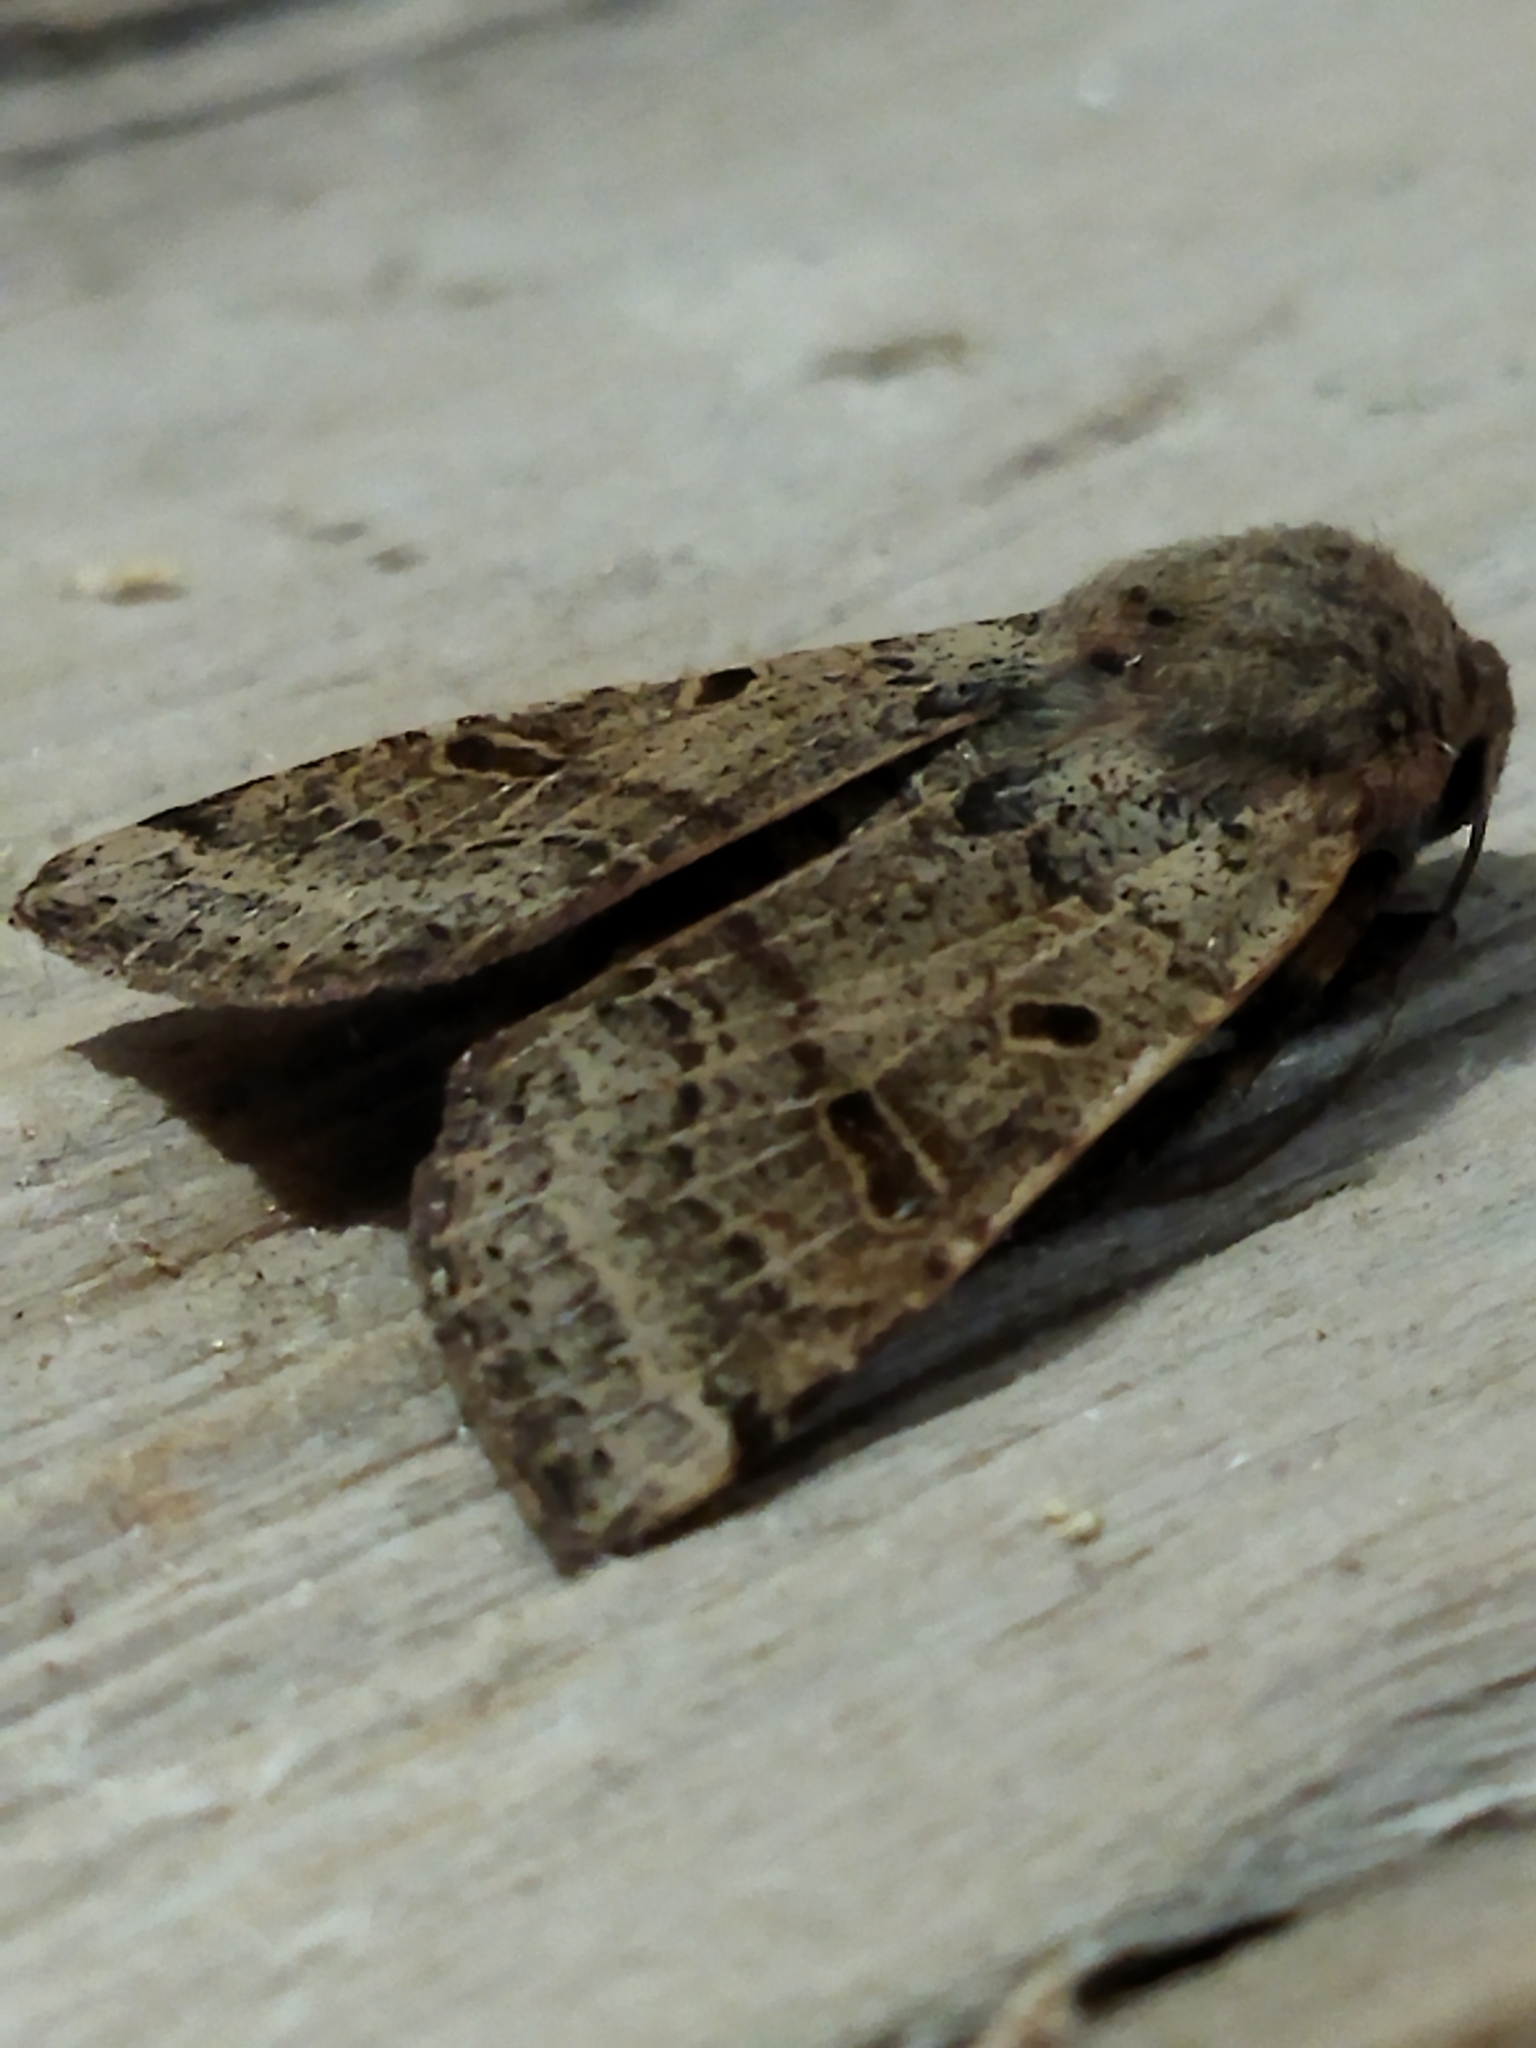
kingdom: Animalia
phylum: Arthropoda
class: Insecta
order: Lepidoptera
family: Noctuidae
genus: Agrochola
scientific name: Agrochola lychnidis
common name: Beaded chestnut
